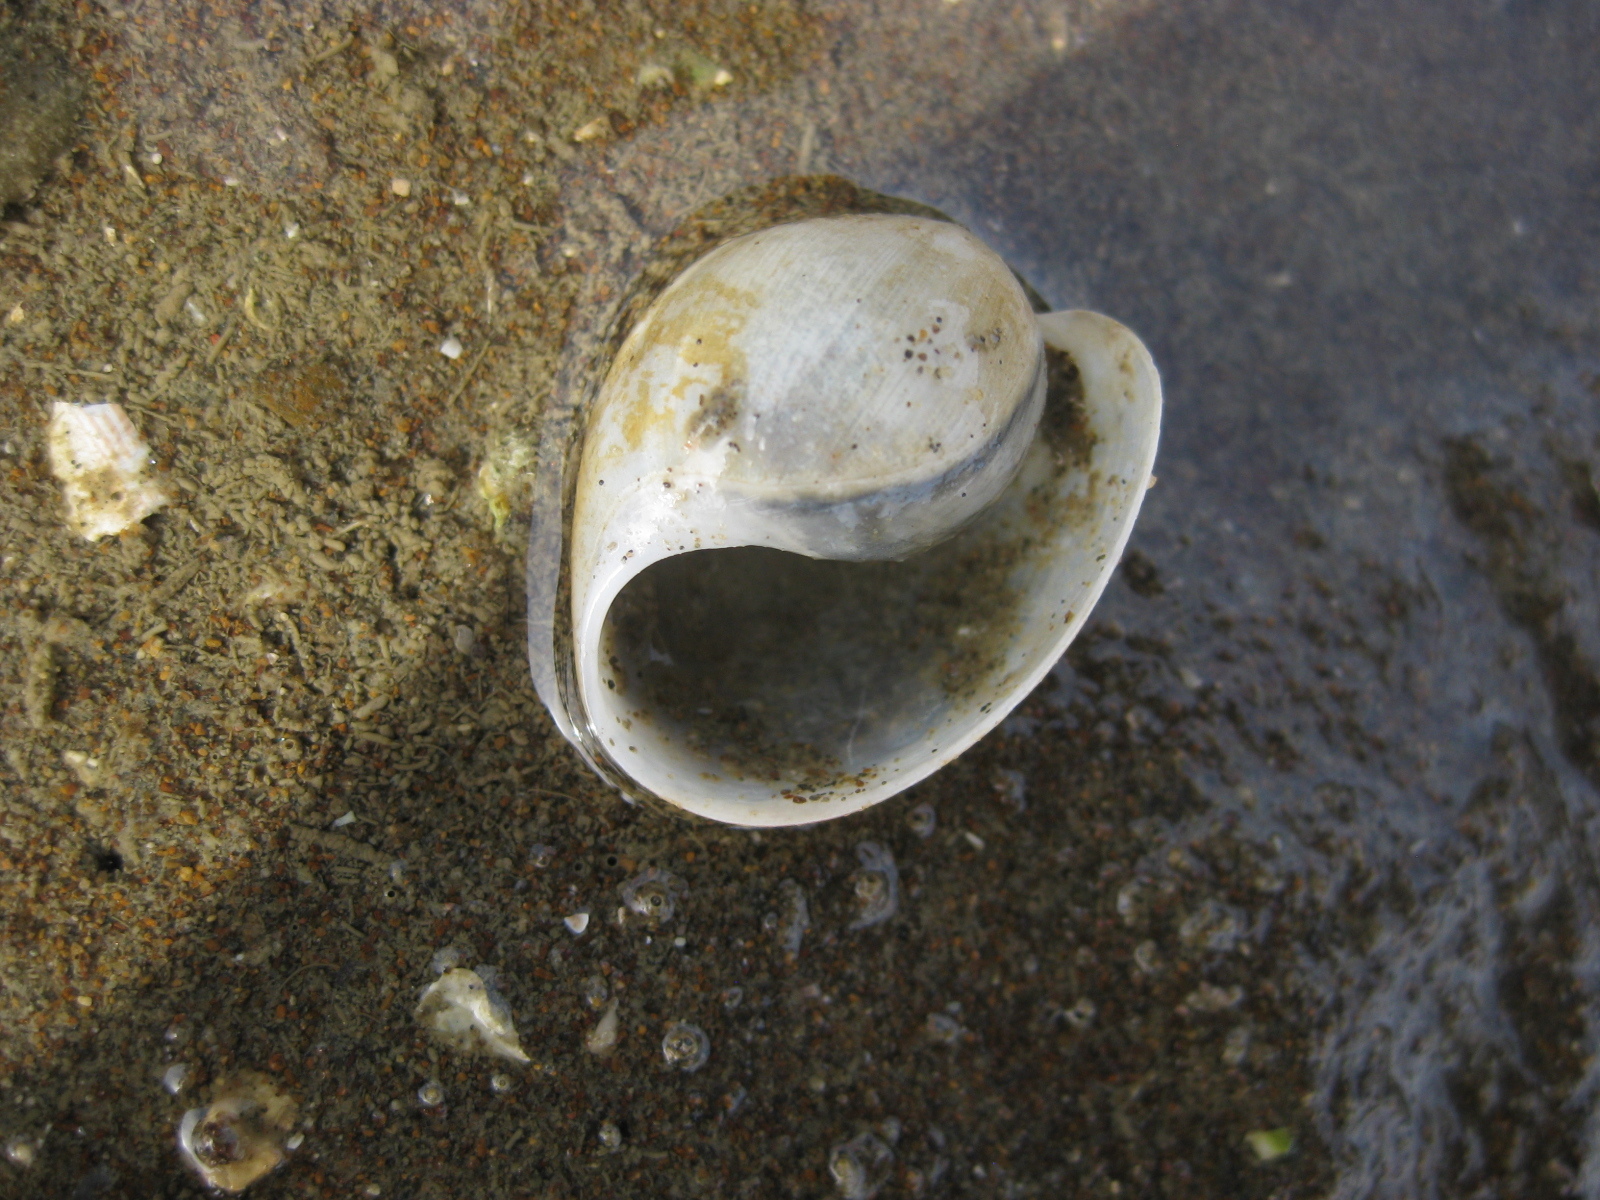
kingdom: Animalia
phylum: Mollusca
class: Gastropoda
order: Cephalaspidea
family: Haminoeidae
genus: Papawera
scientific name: Papawera zelandiae
